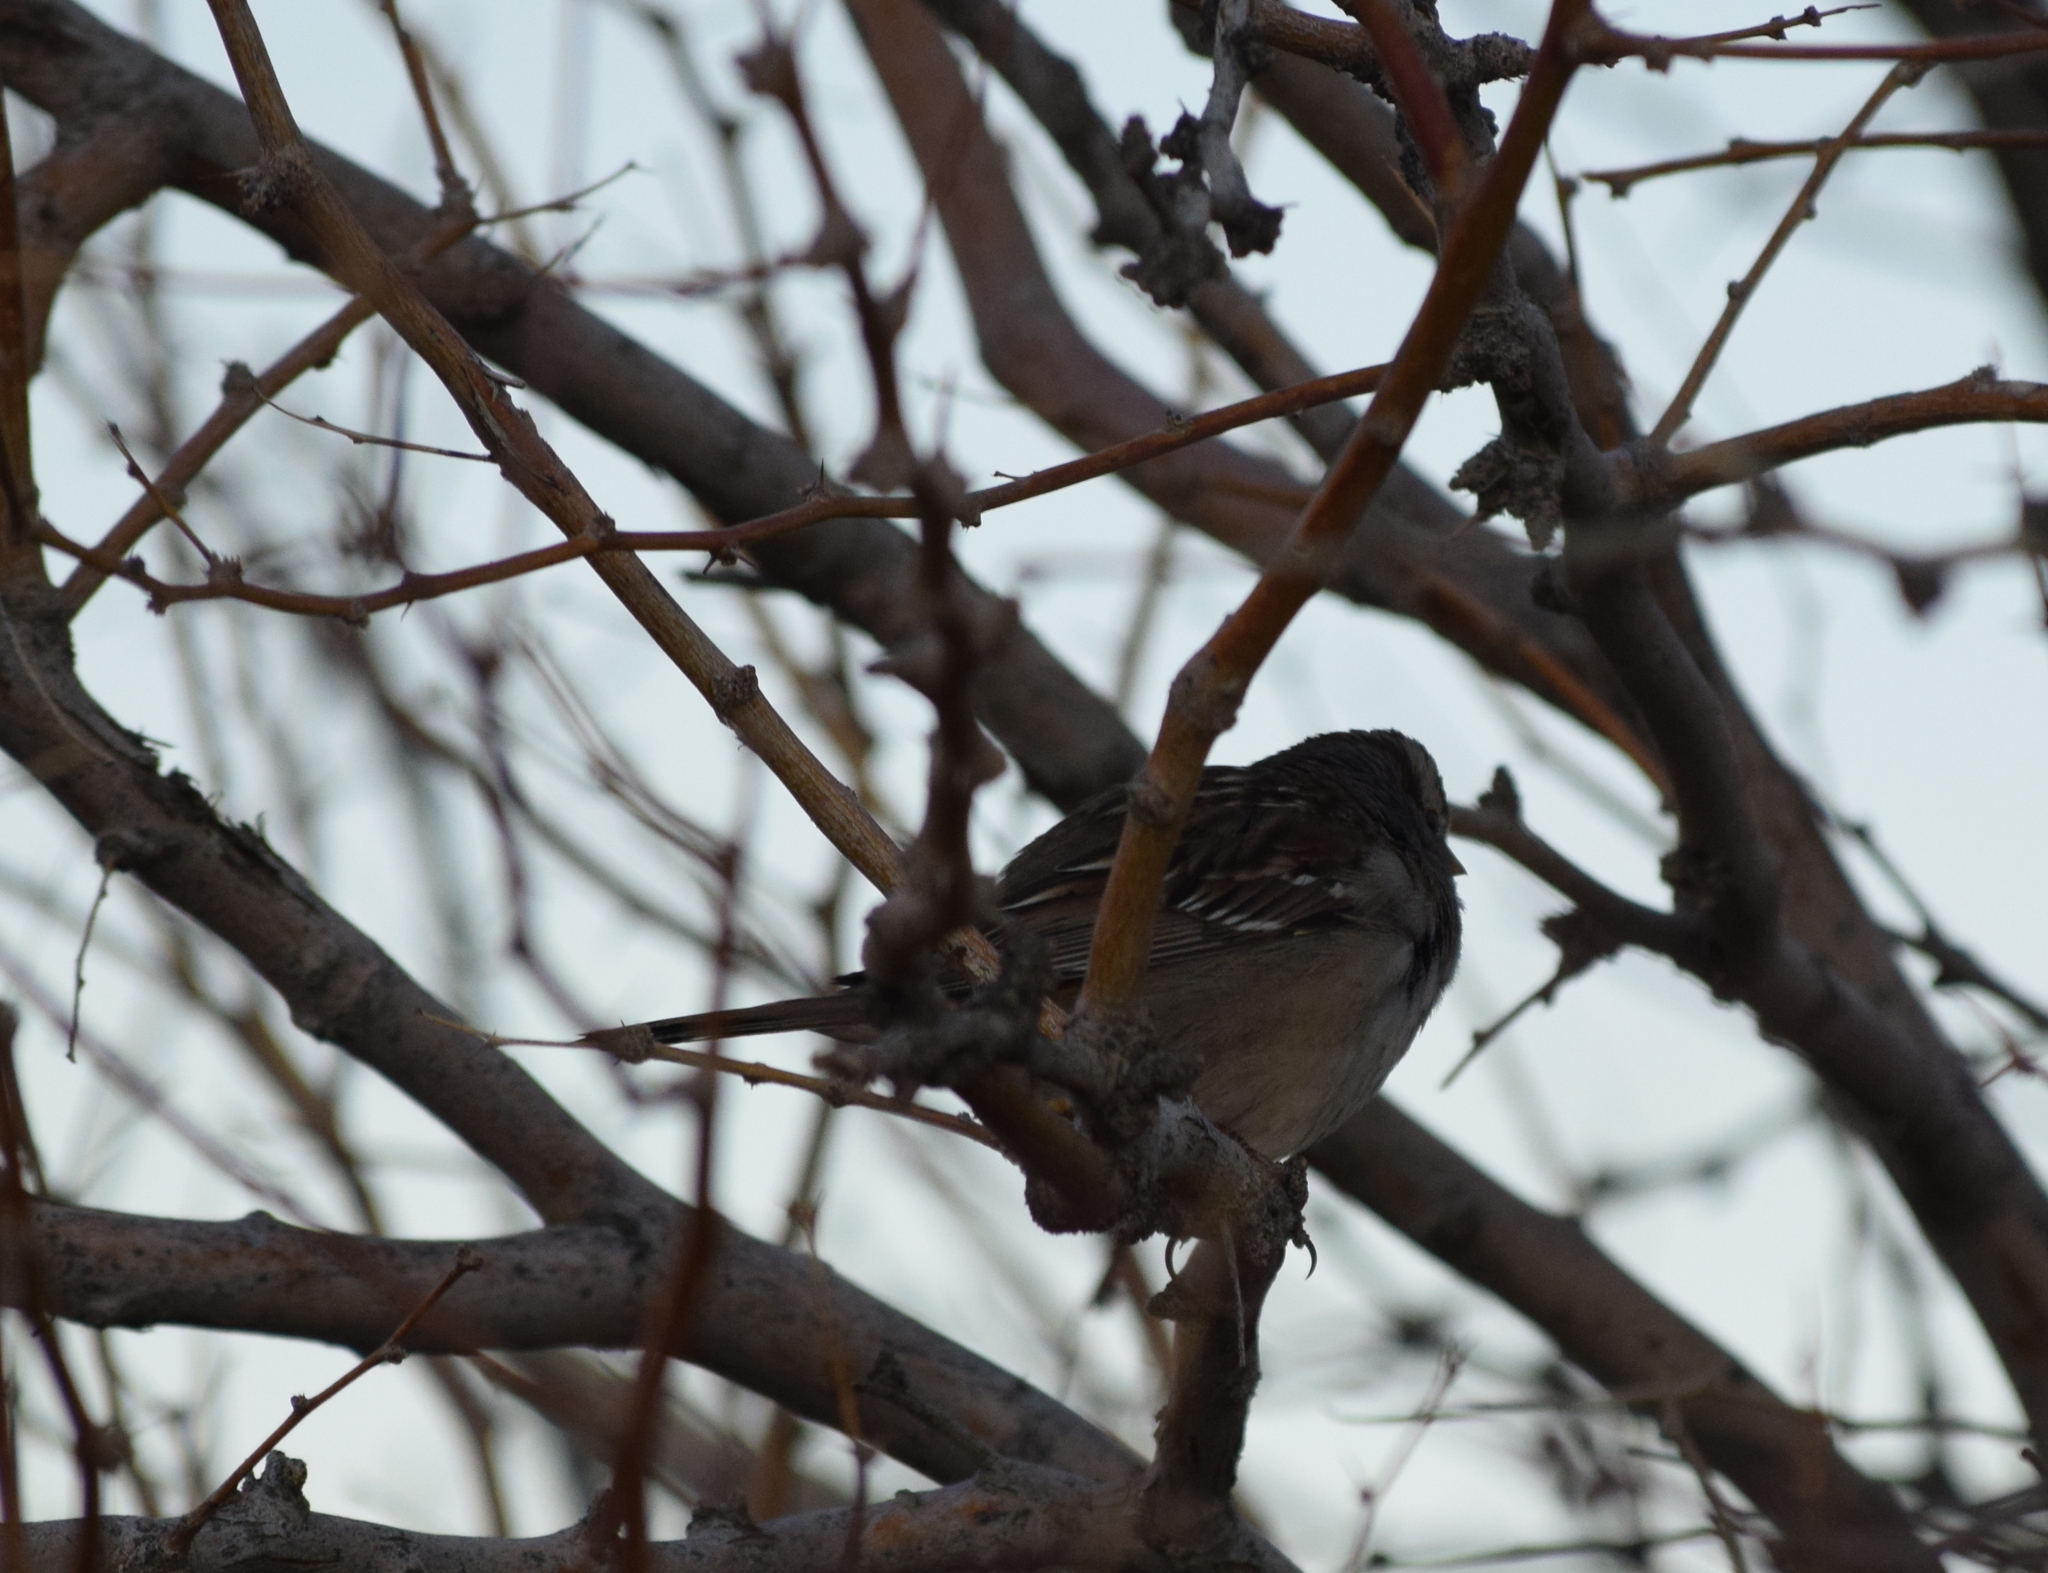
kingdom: Animalia
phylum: Chordata
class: Aves
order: Passeriformes
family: Passerellidae
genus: Zonotrichia
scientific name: Zonotrichia leucophrys
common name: White-crowned sparrow
